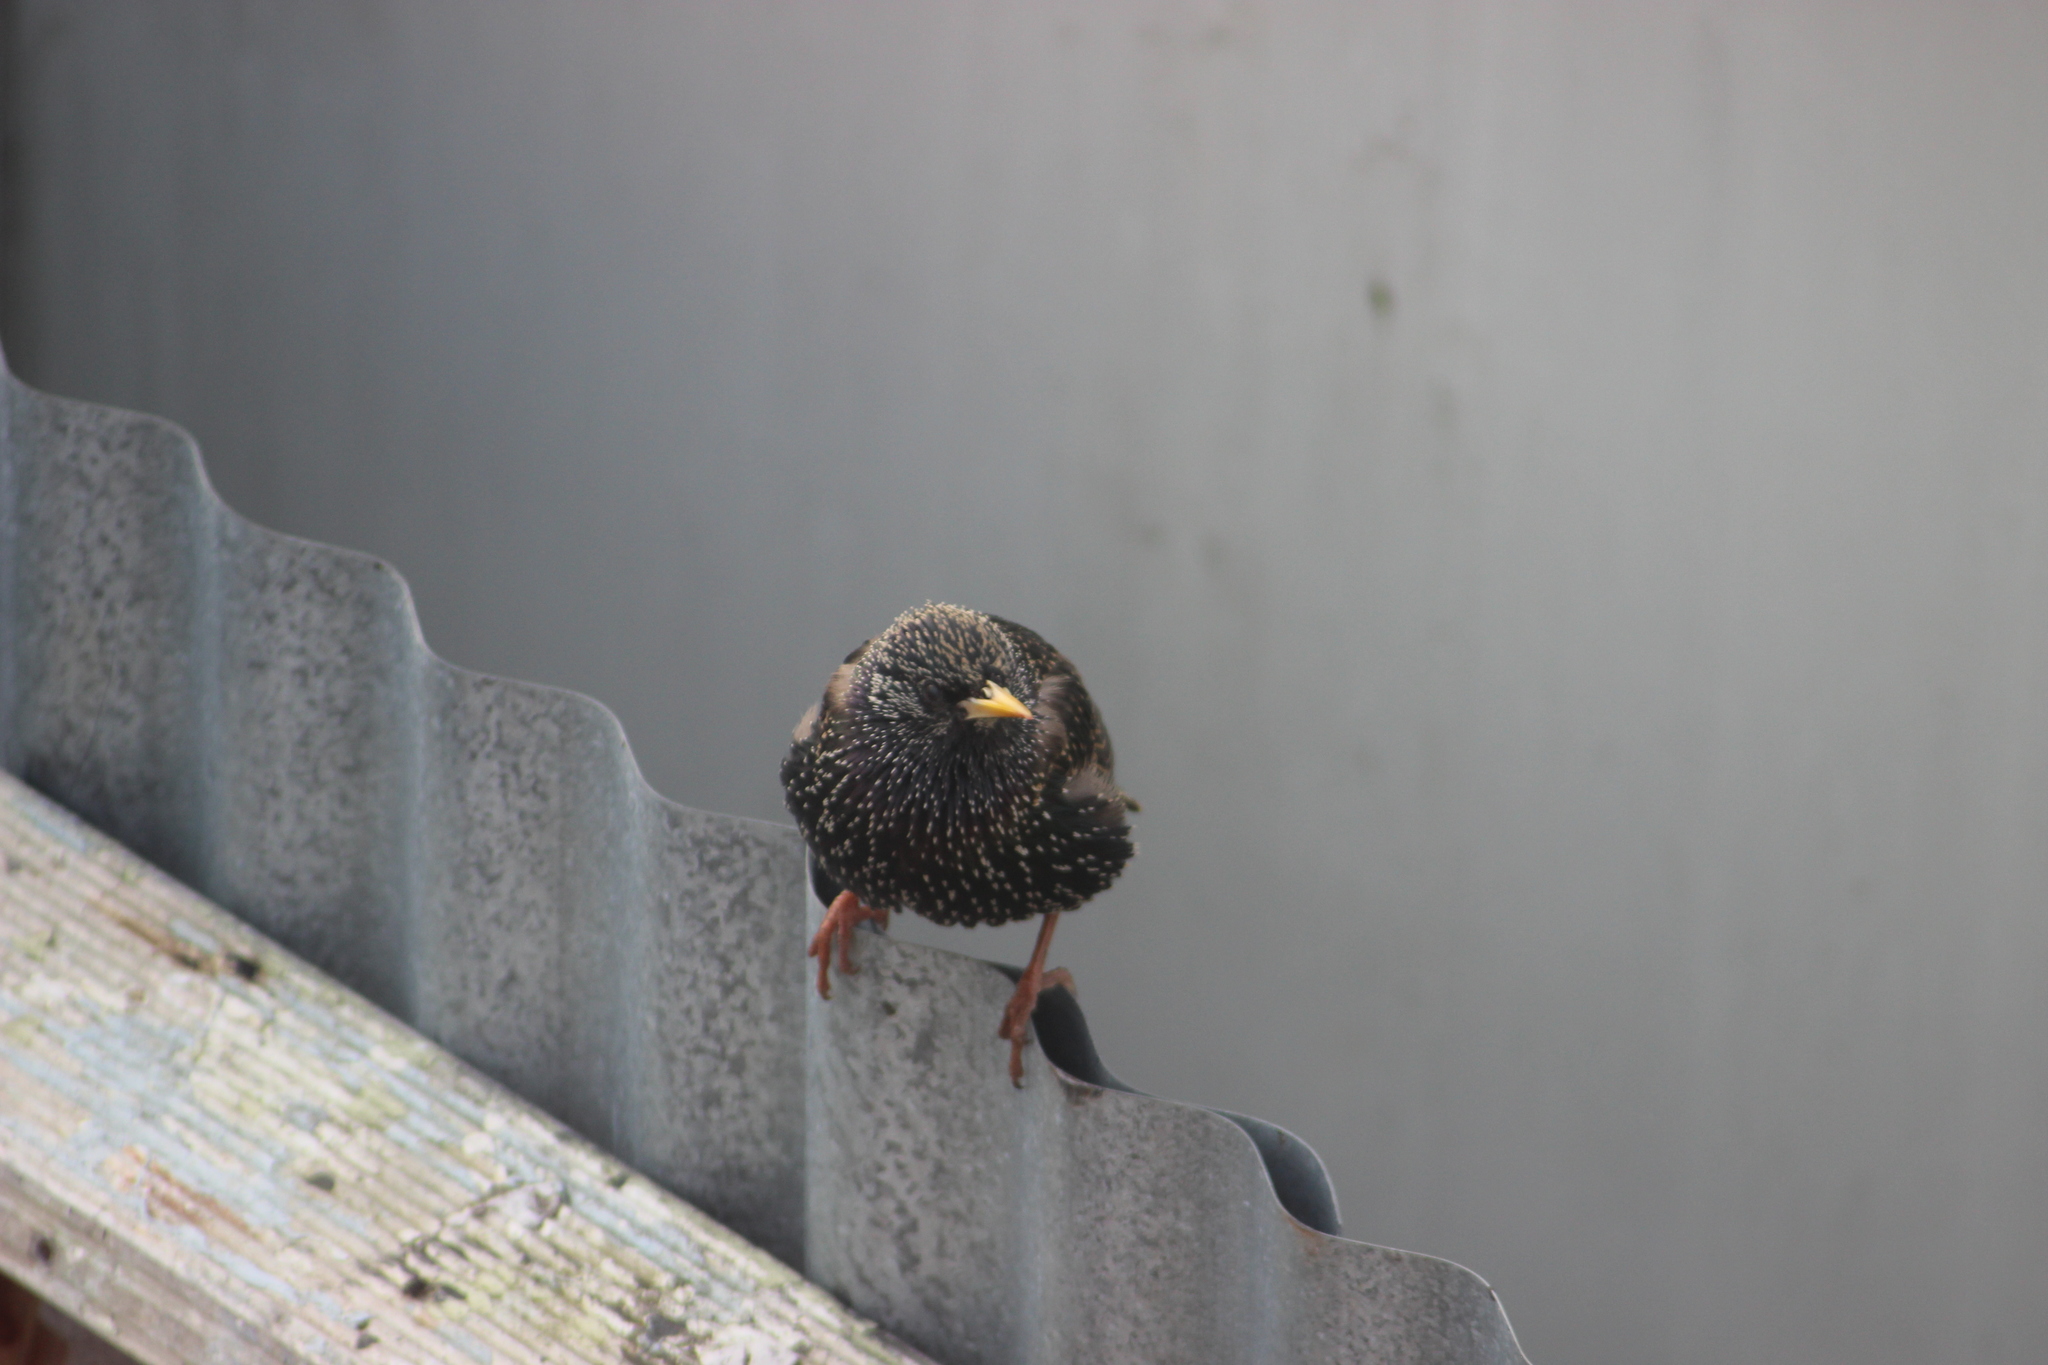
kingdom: Animalia
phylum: Chordata
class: Aves
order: Passeriformes
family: Sturnidae
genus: Sturnus
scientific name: Sturnus vulgaris
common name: Common starling
